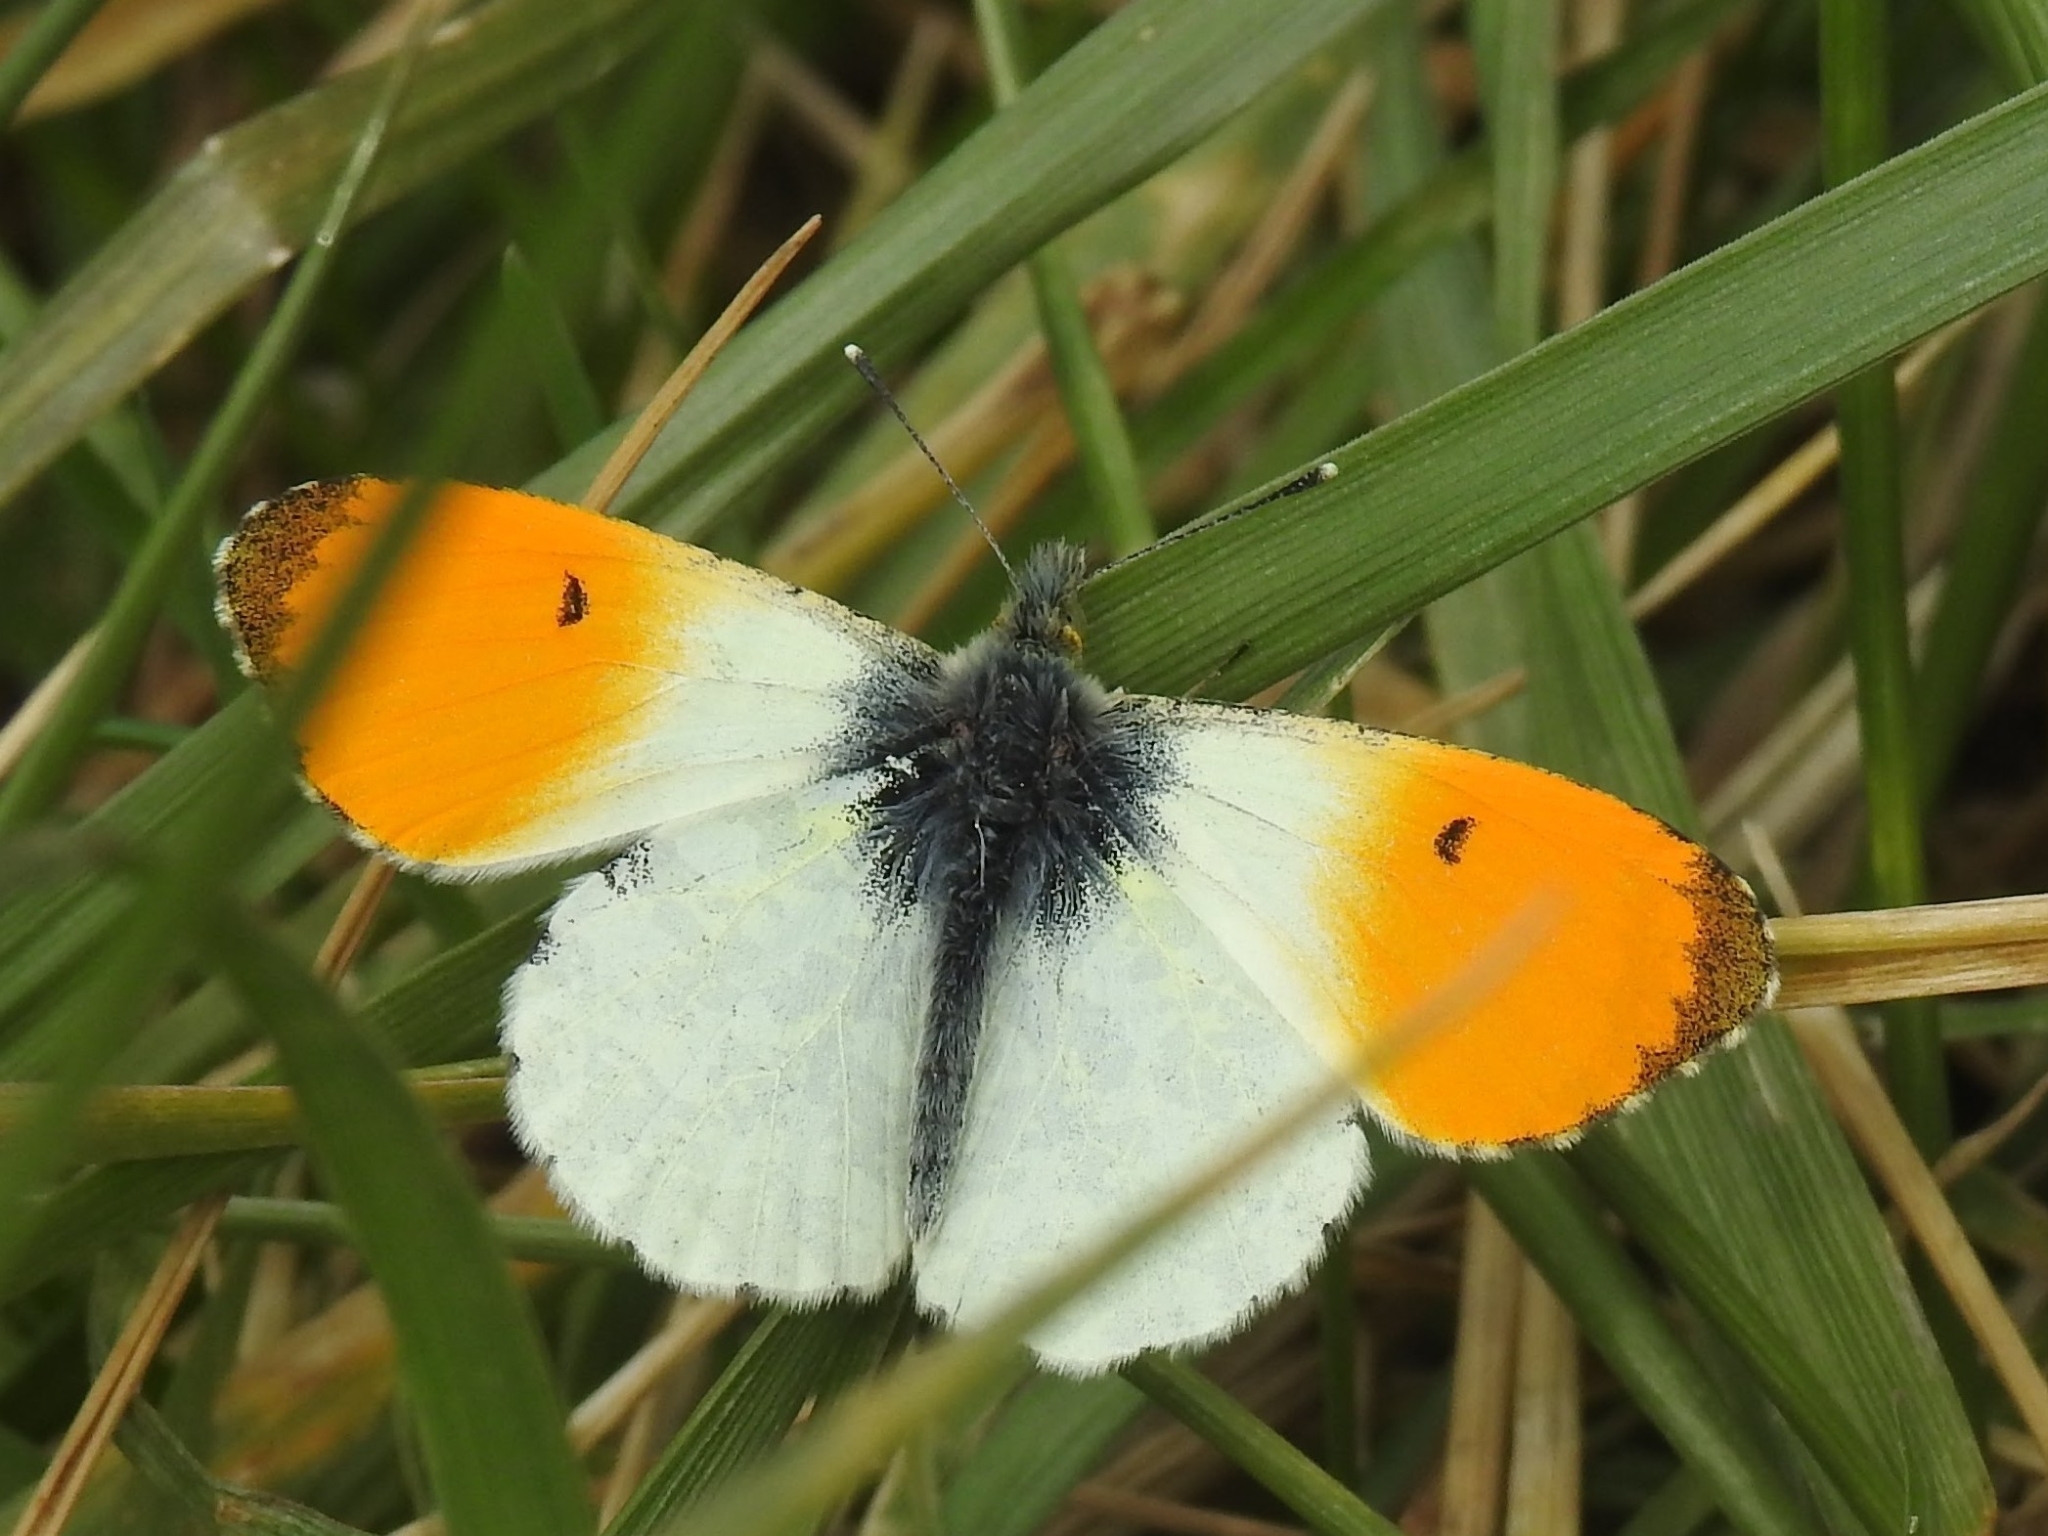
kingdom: Animalia
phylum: Arthropoda
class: Insecta
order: Lepidoptera
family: Pieridae
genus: Anthocharis
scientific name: Anthocharis cardamines
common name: Orange-tip
